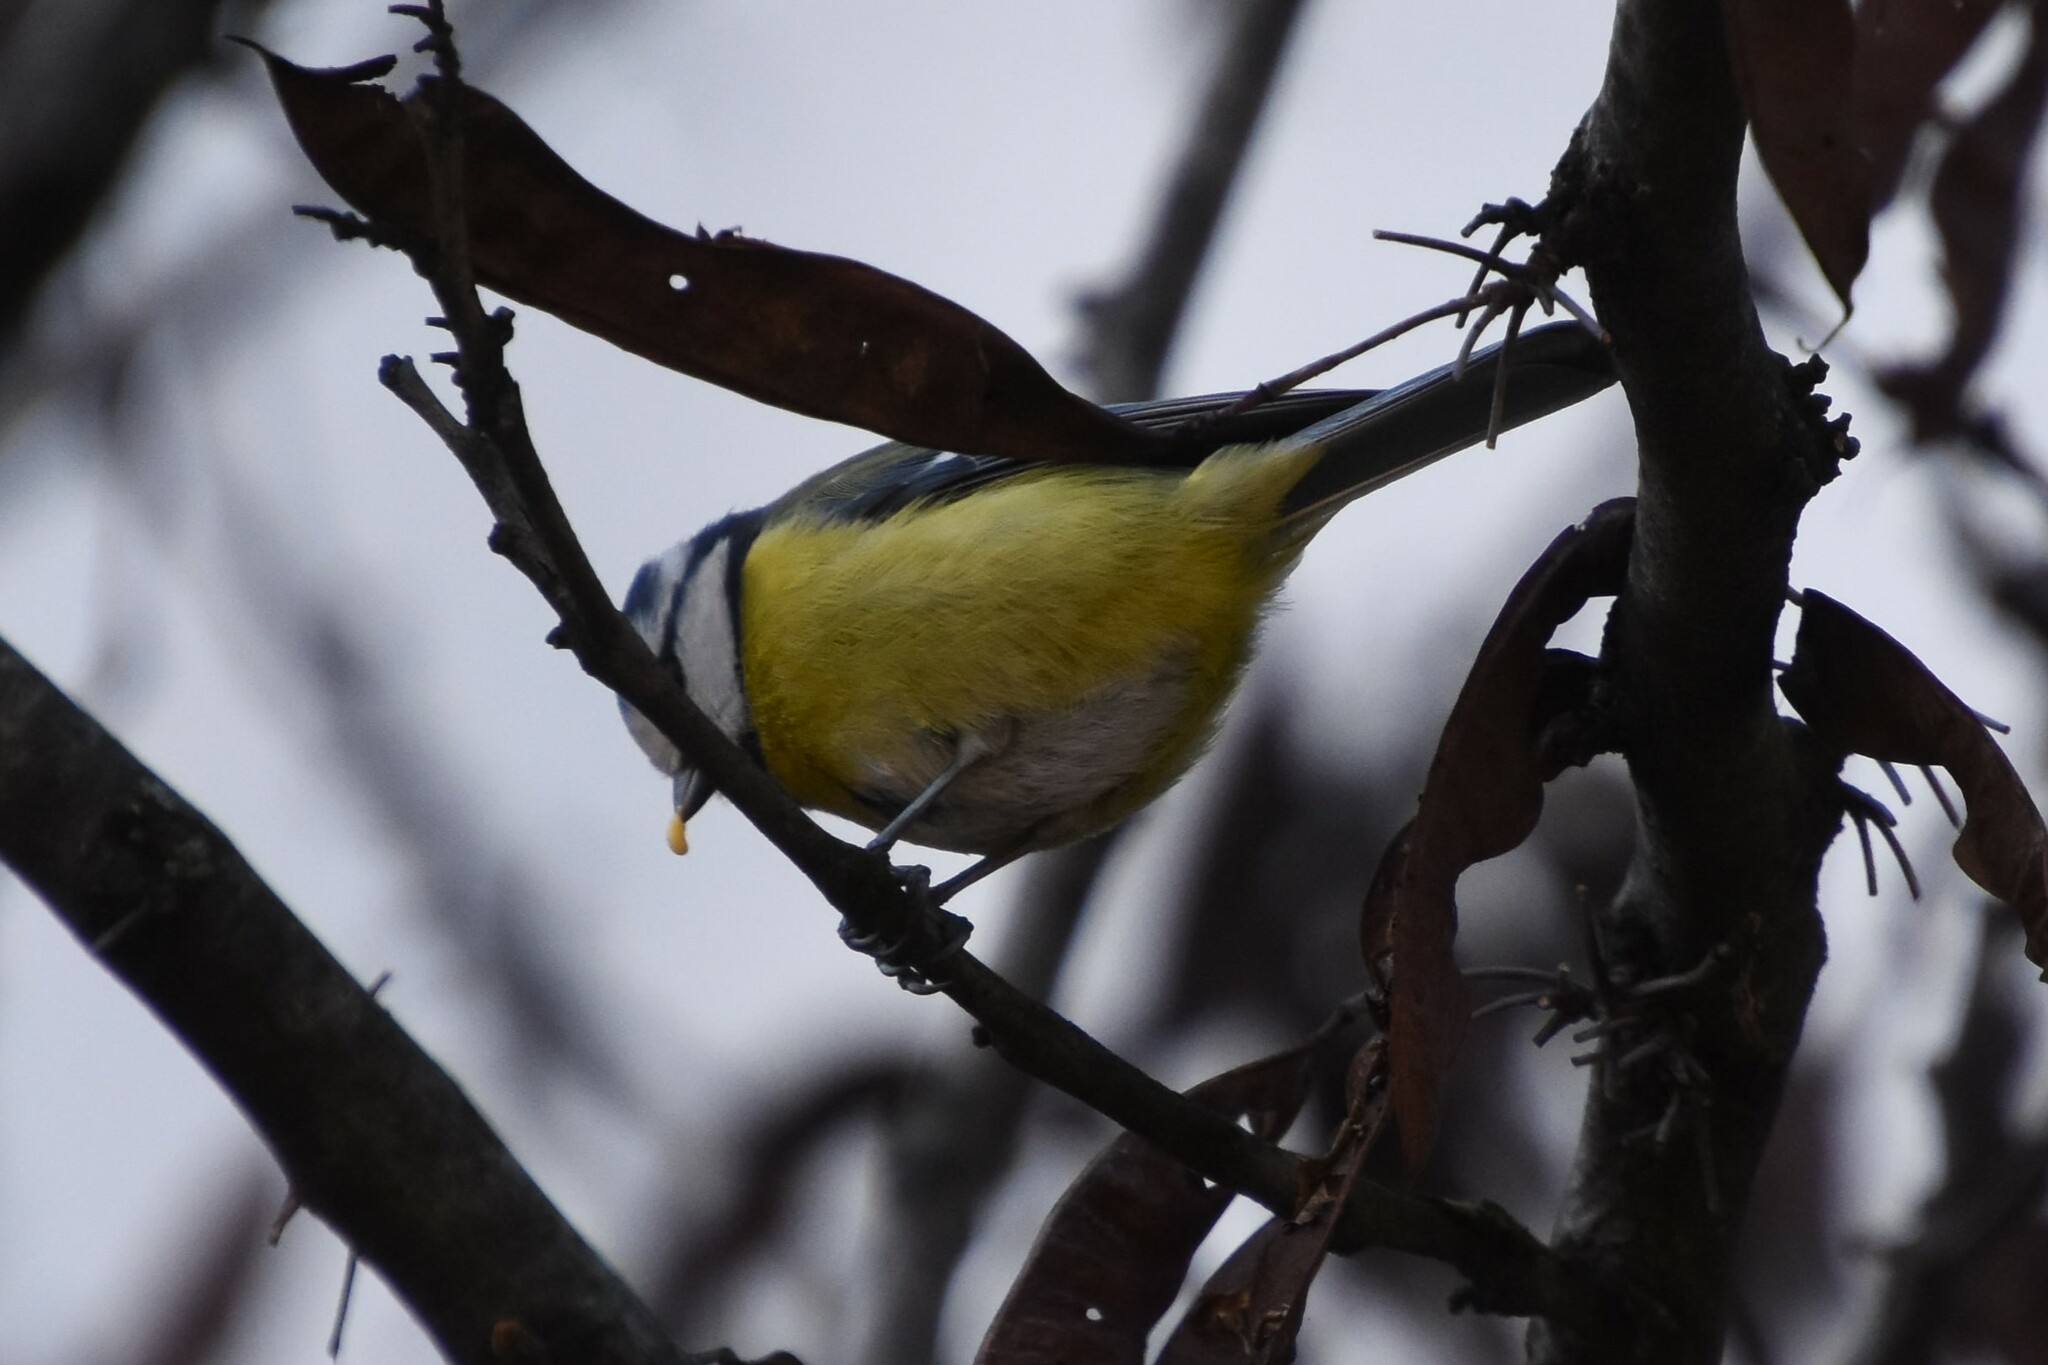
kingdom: Animalia
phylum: Chordata
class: Aves
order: Passeriformes
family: Paridae
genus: Cyanistes
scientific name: Cyanistes caeruleus
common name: Eurasian blue tit
